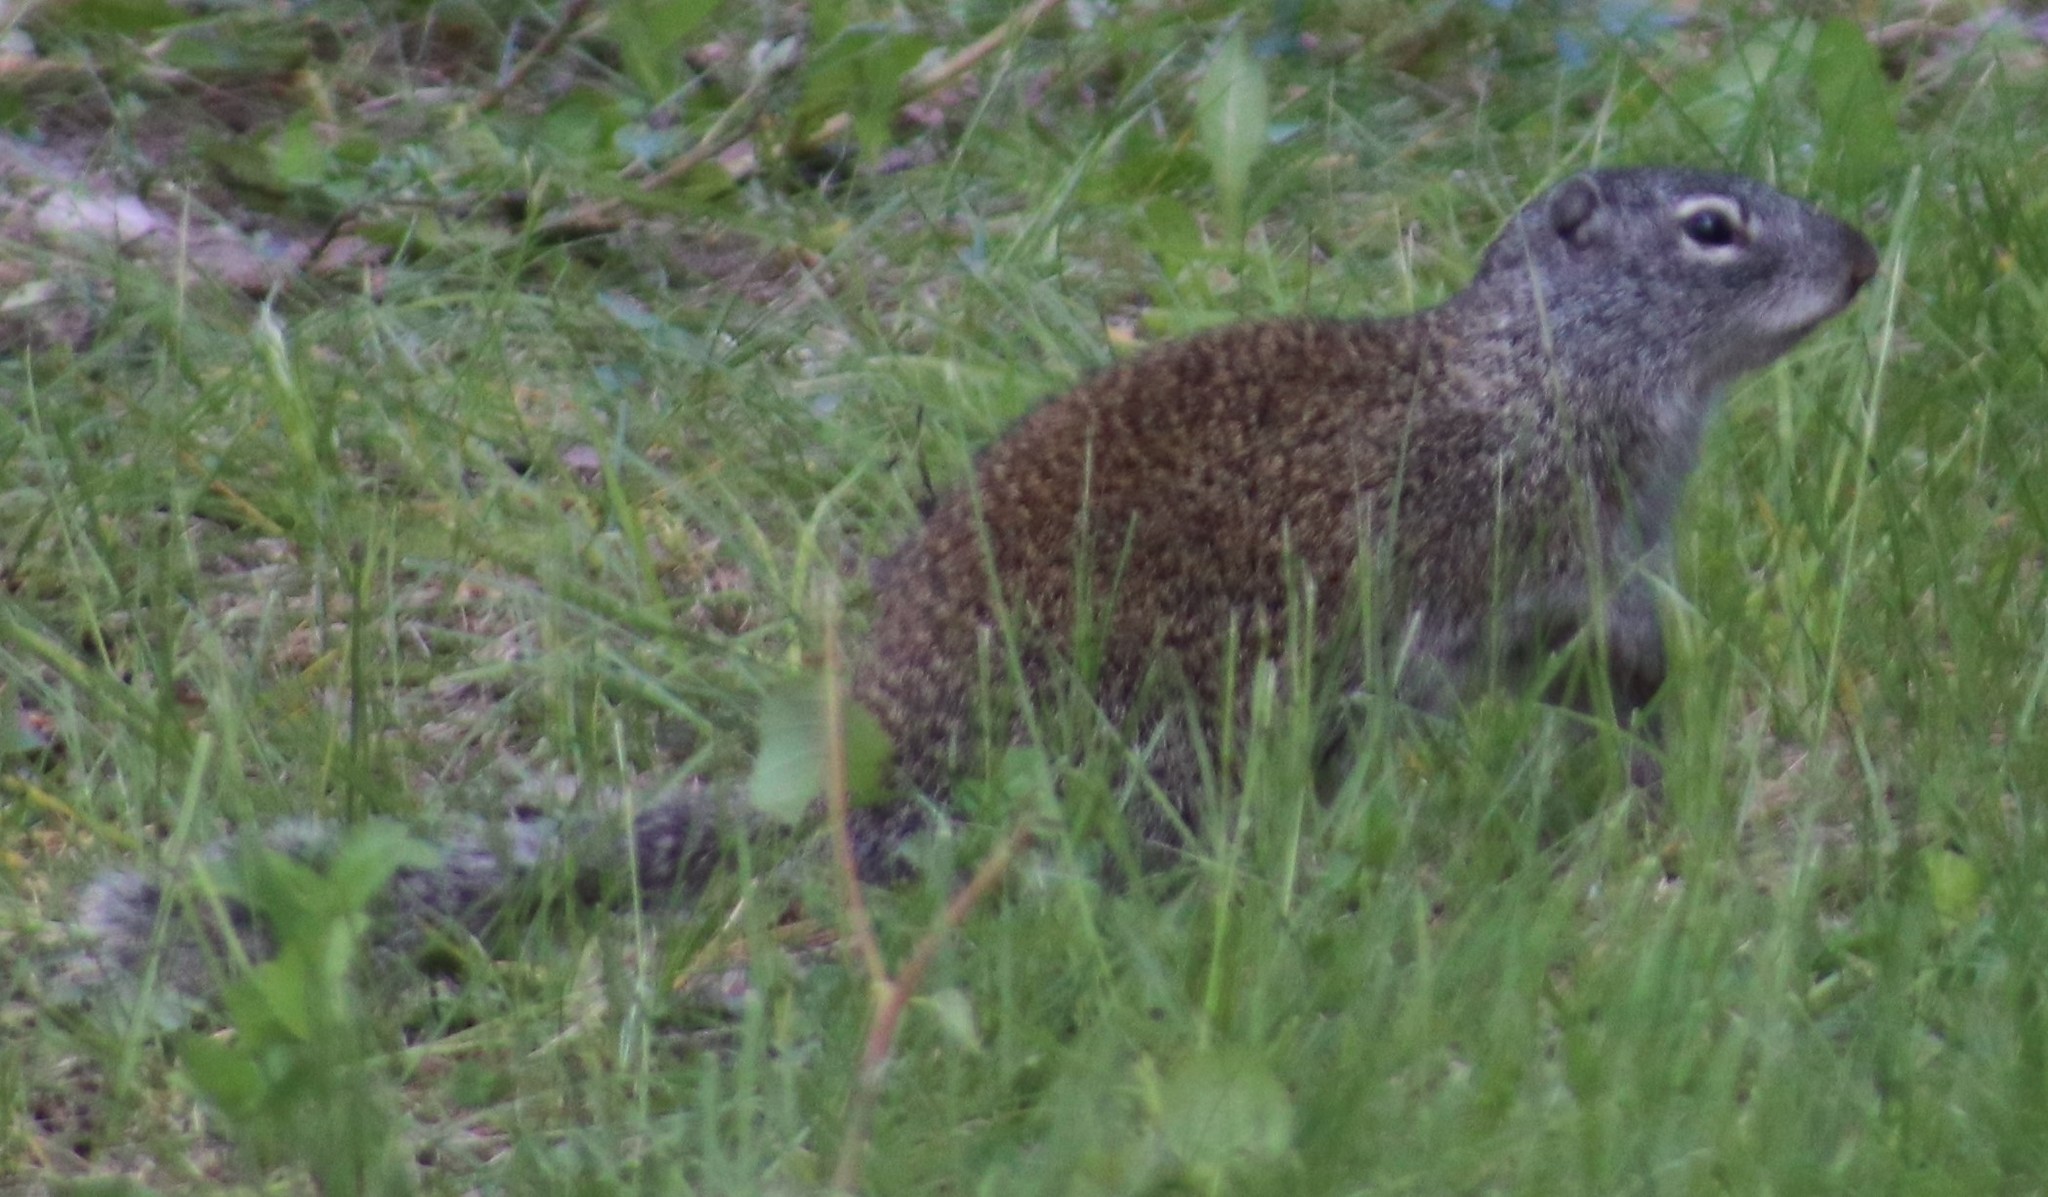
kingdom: Animalia
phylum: Chordata
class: Mammalia
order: Rodentia
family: Sciuridae
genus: Poliocitellus
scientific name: Poliocitellus franklinii
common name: Franklin's ground squirrel
